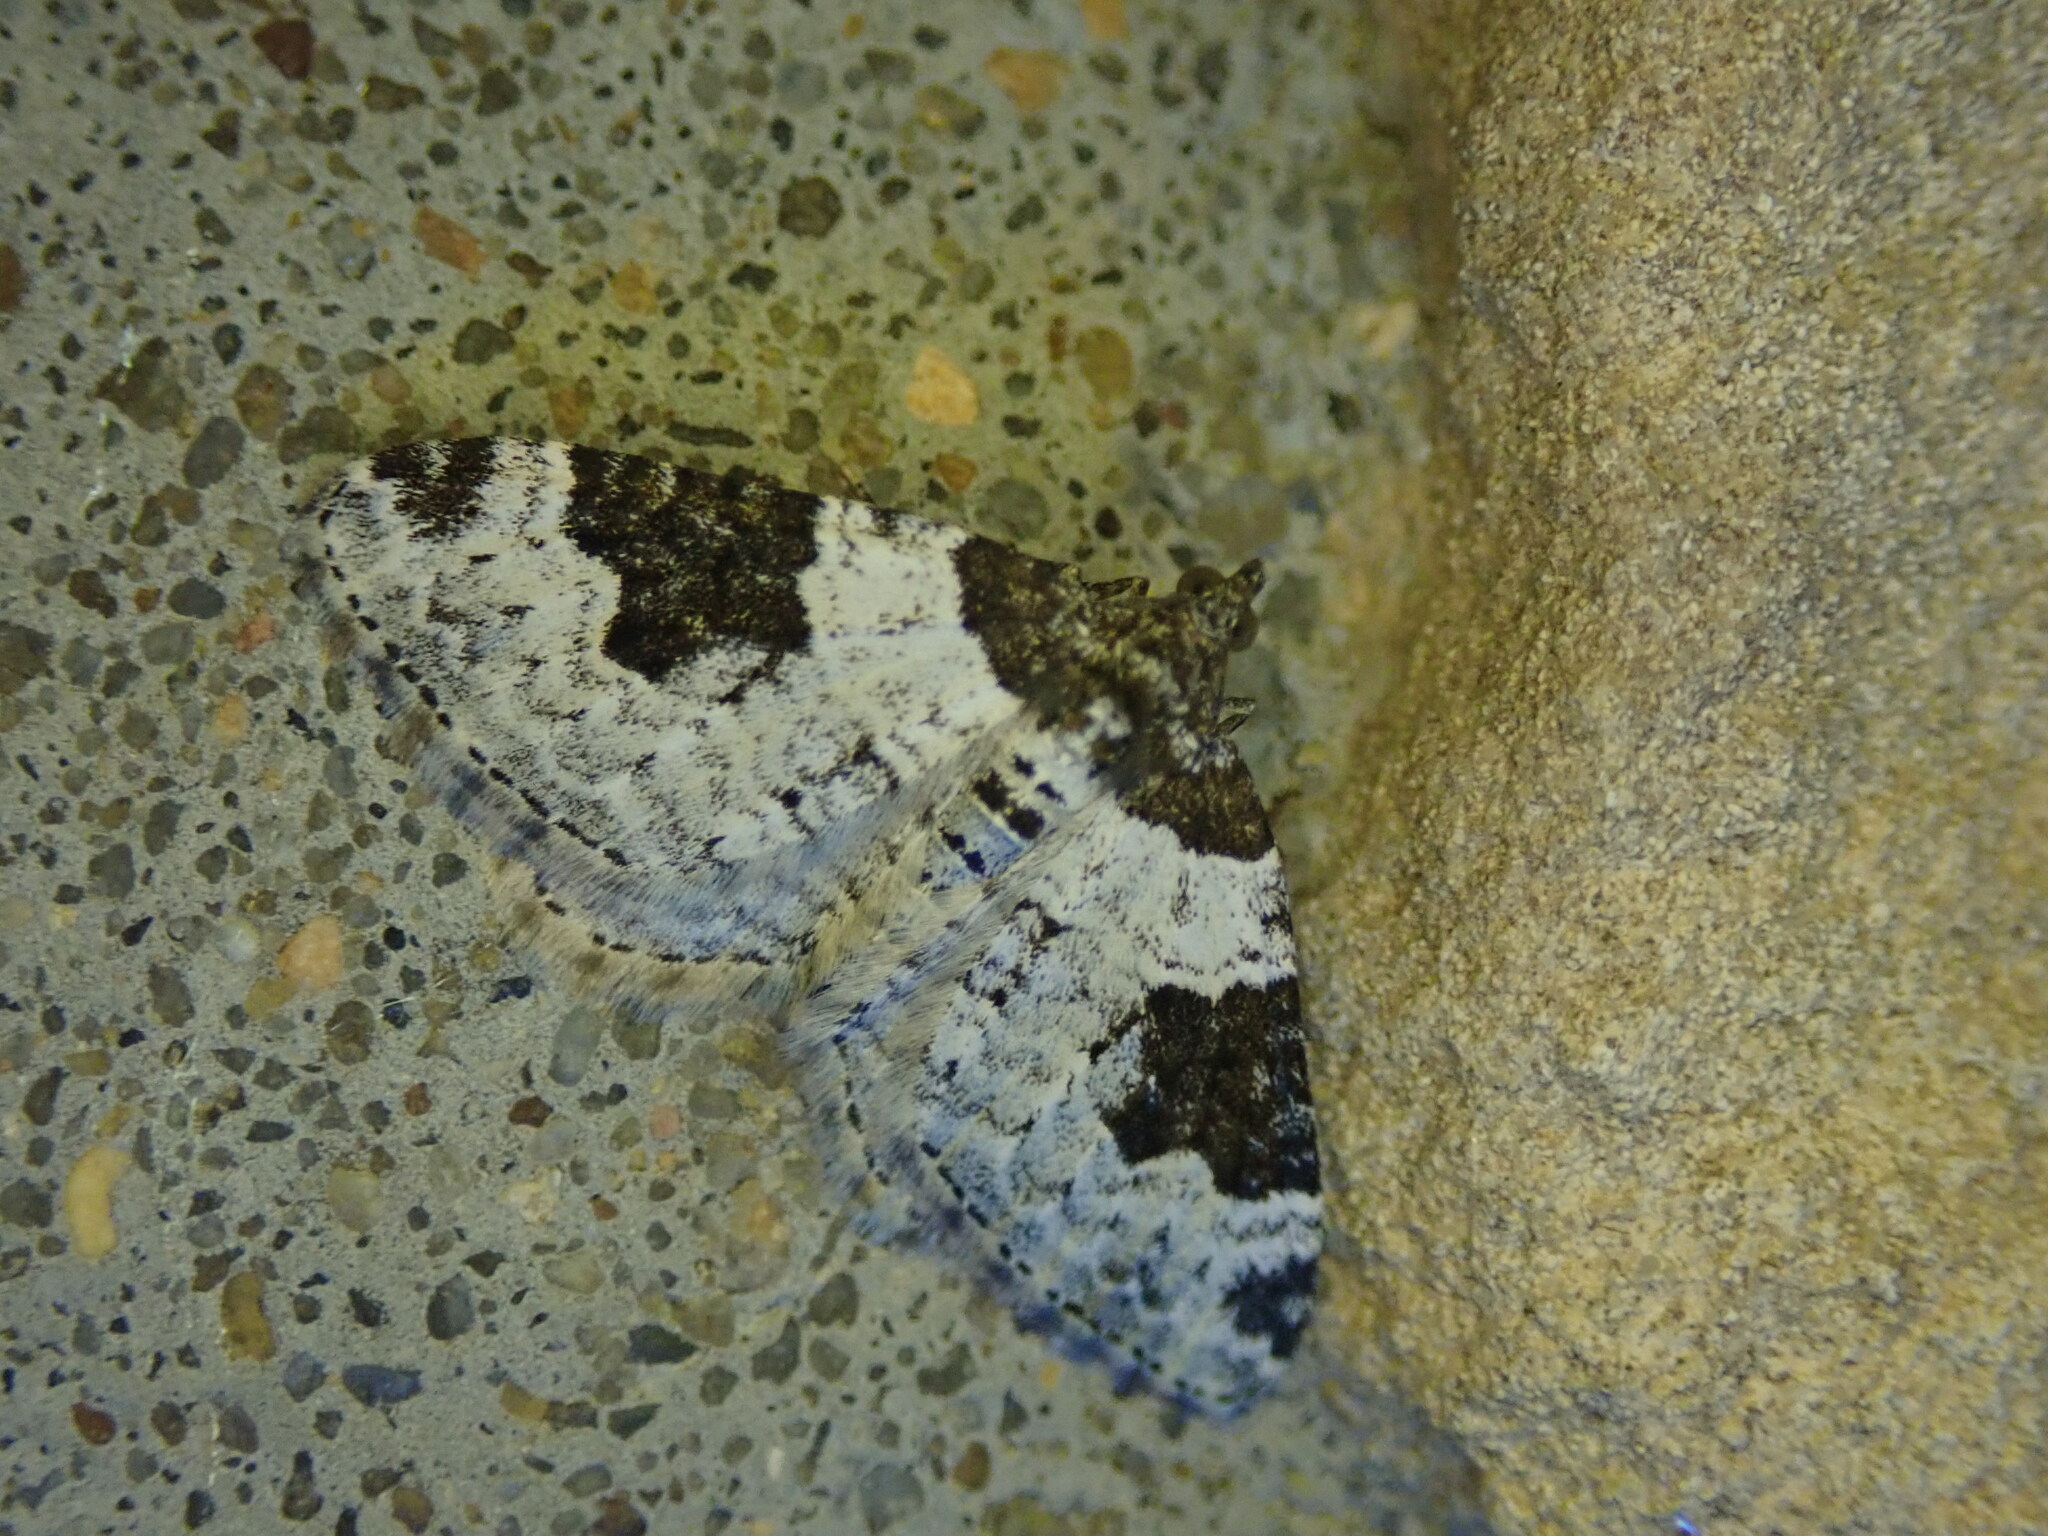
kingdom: Animalia
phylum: Arthropoda
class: Insecta
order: Lepidoptera
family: Geometridae
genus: Xanthorhoe
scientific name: Xanthorhoe fluctuata
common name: Garden carpet
